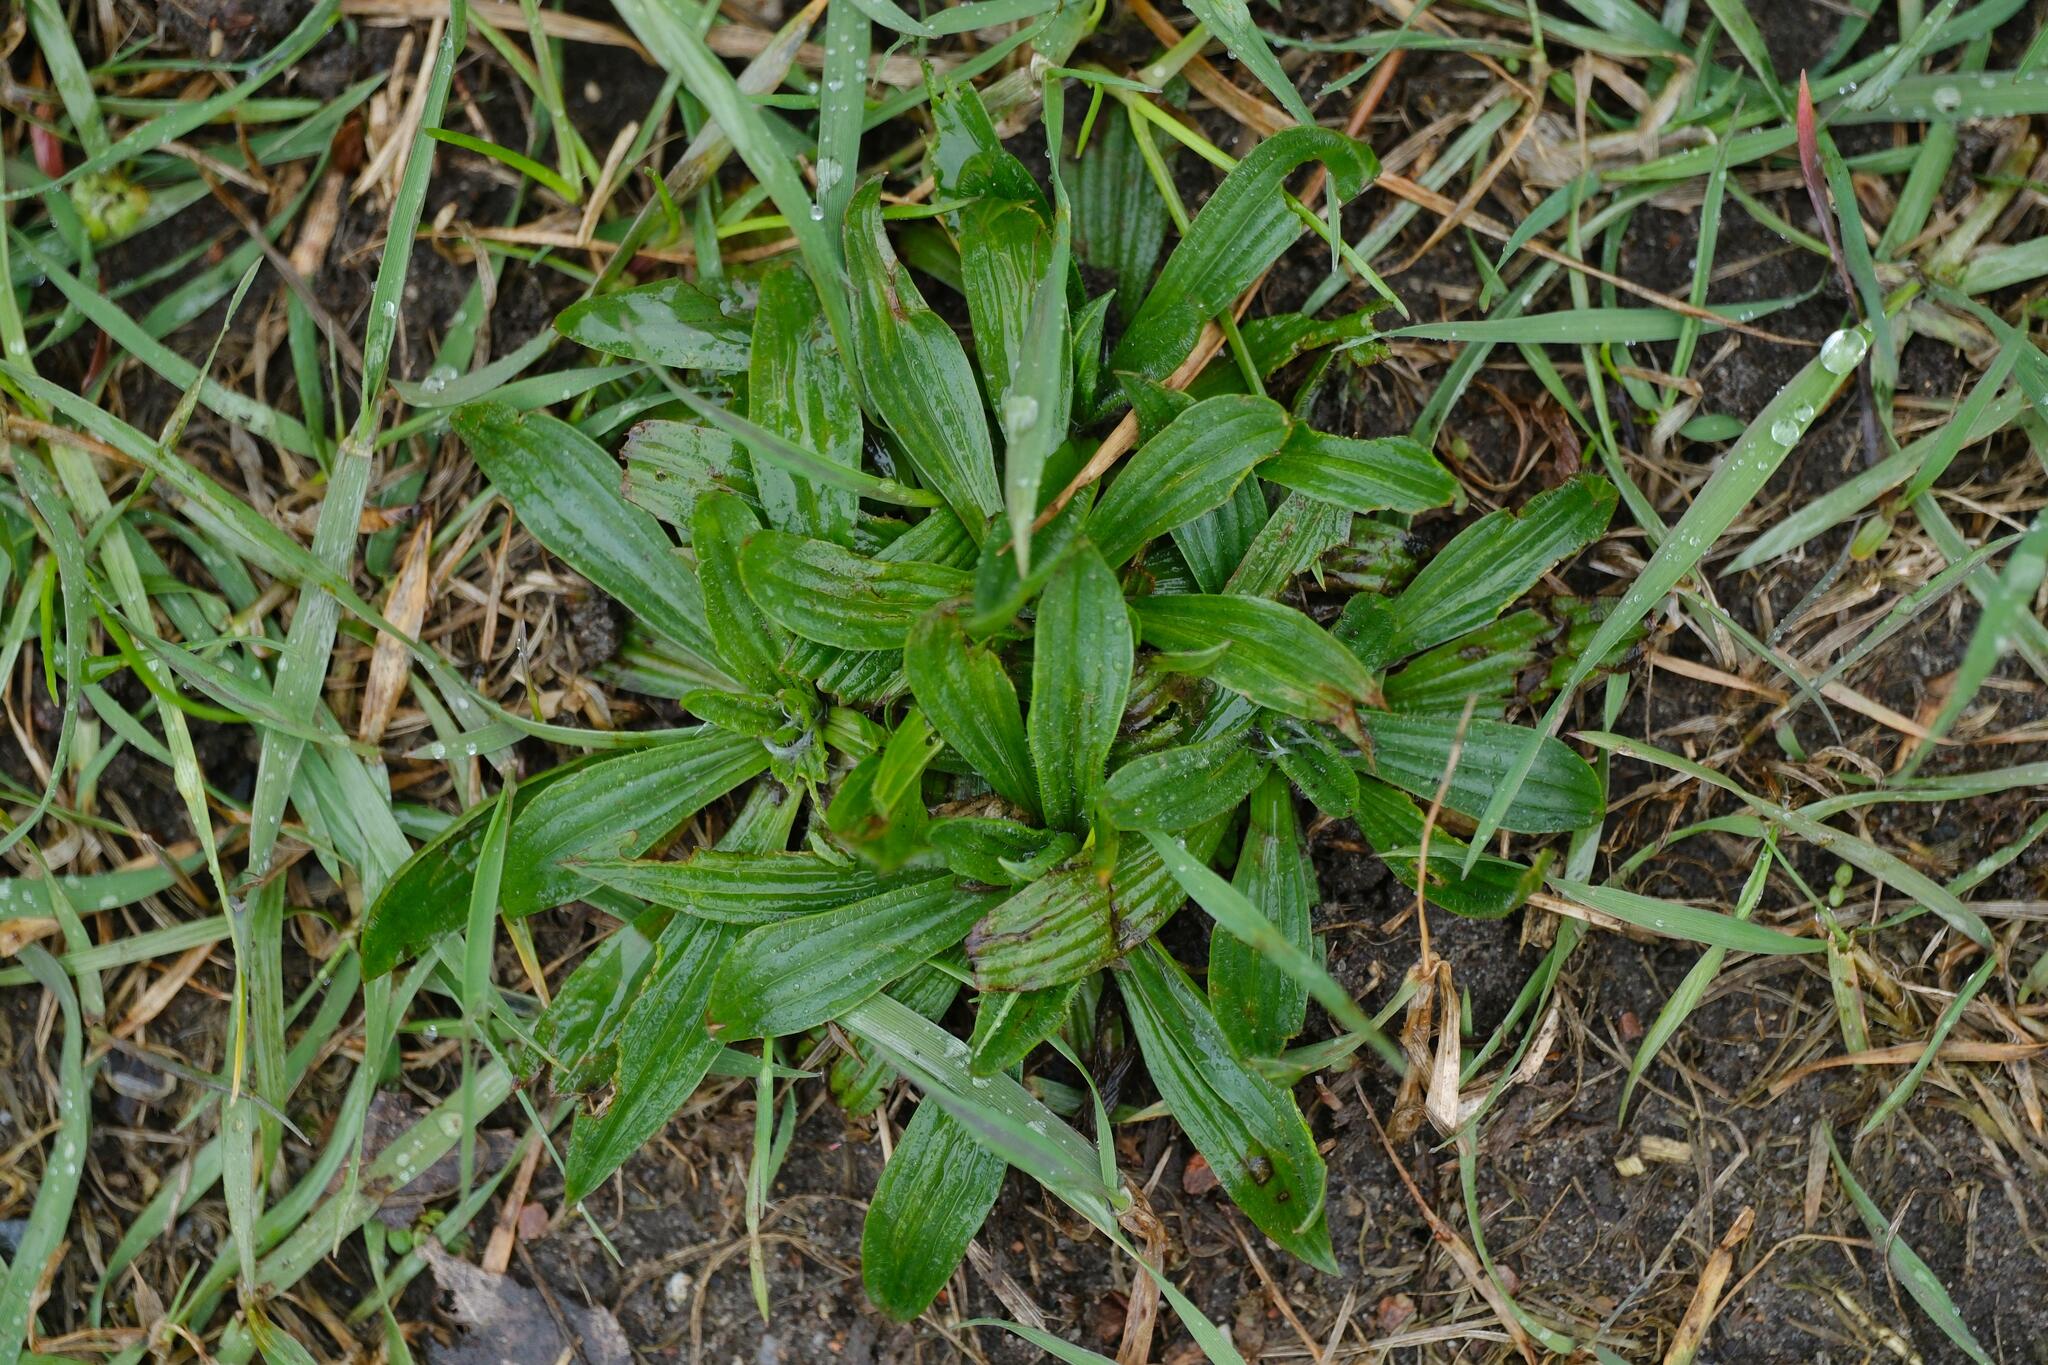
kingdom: Plantae
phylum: Tracheophyta
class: Magnoliopsida
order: Lamiales
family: Plantaginaceae
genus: Plantago
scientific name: Plantago lanceolata
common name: Ribwort plantain
